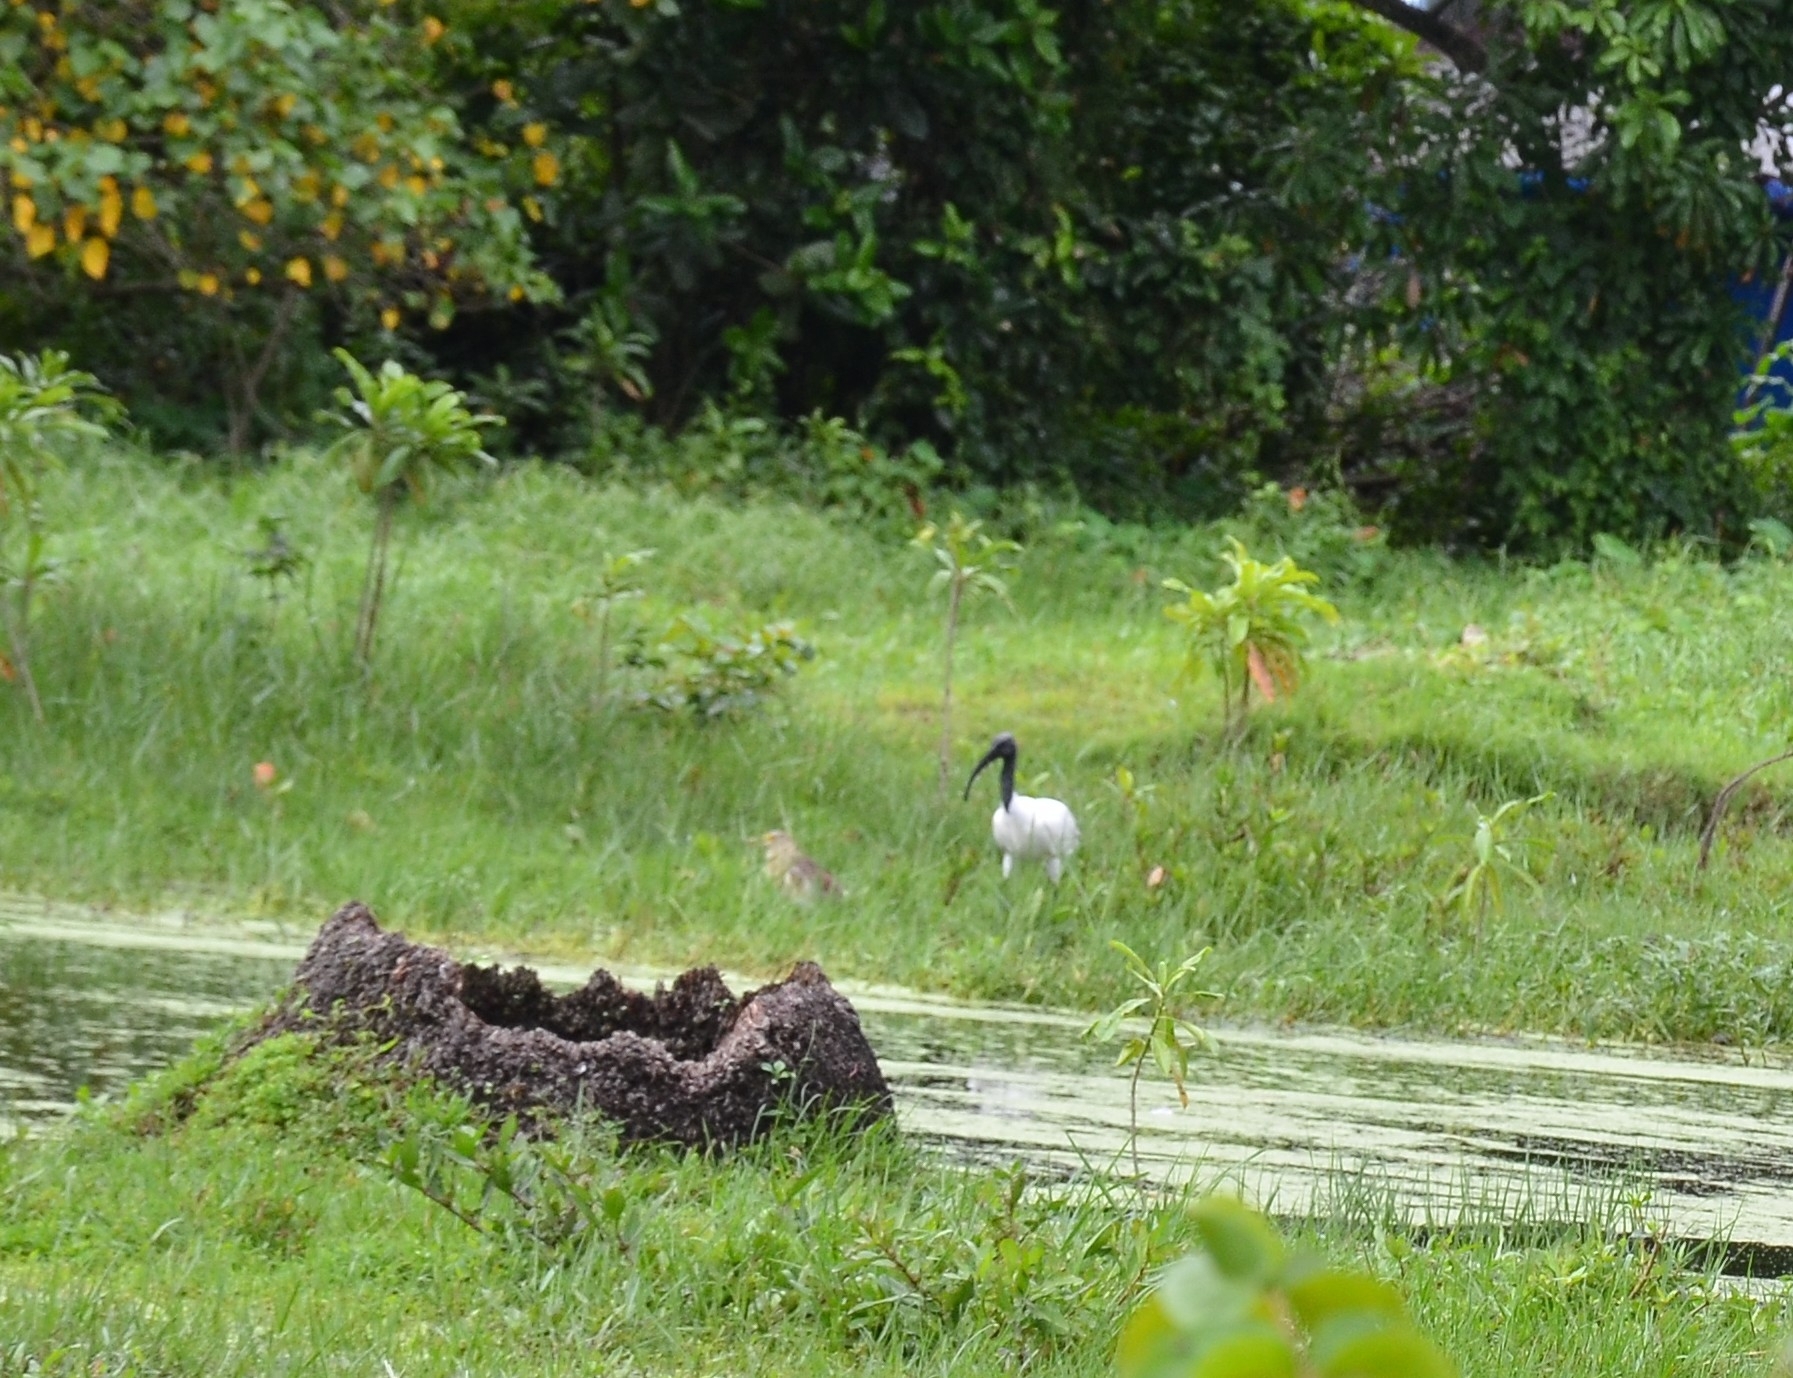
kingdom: Animalia
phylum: Chordata
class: Aves
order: Pelecaniformes
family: Threskiornithidae
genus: Threskiornis
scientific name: Threskiornis melanocephalus
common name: Black-headed ibis
